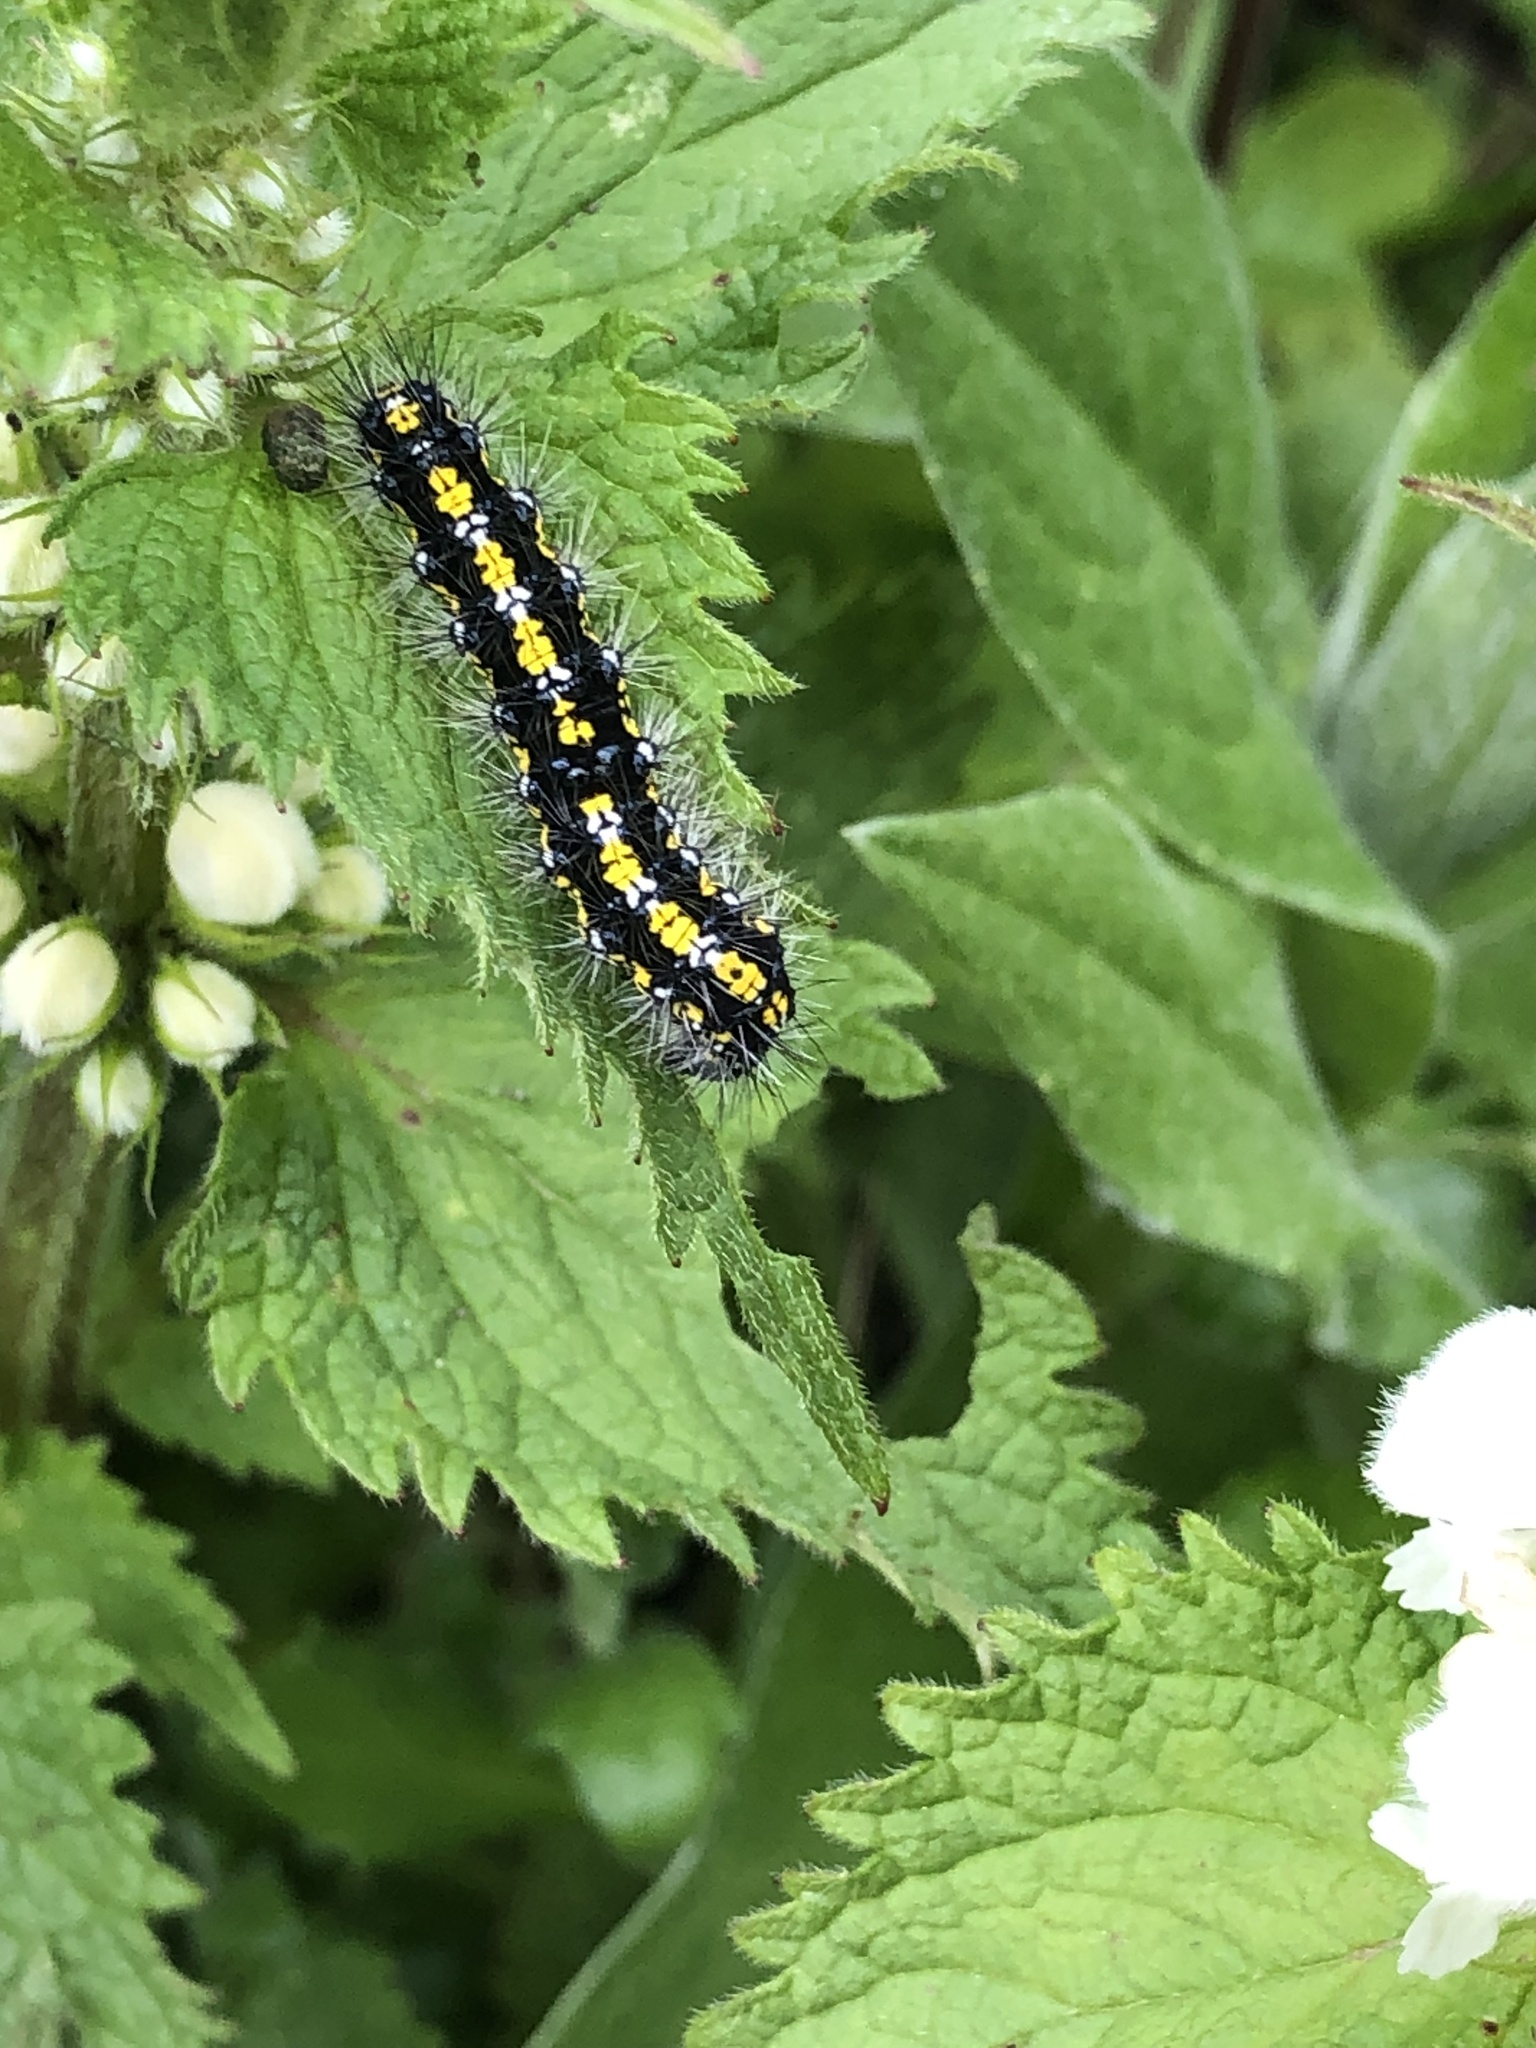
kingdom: Animalia
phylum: Arthropoda
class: Insecta
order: Lepidoptera
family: Erebidae
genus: Callimorpha
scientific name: Callimorpha dominula
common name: Scarlet tiger
